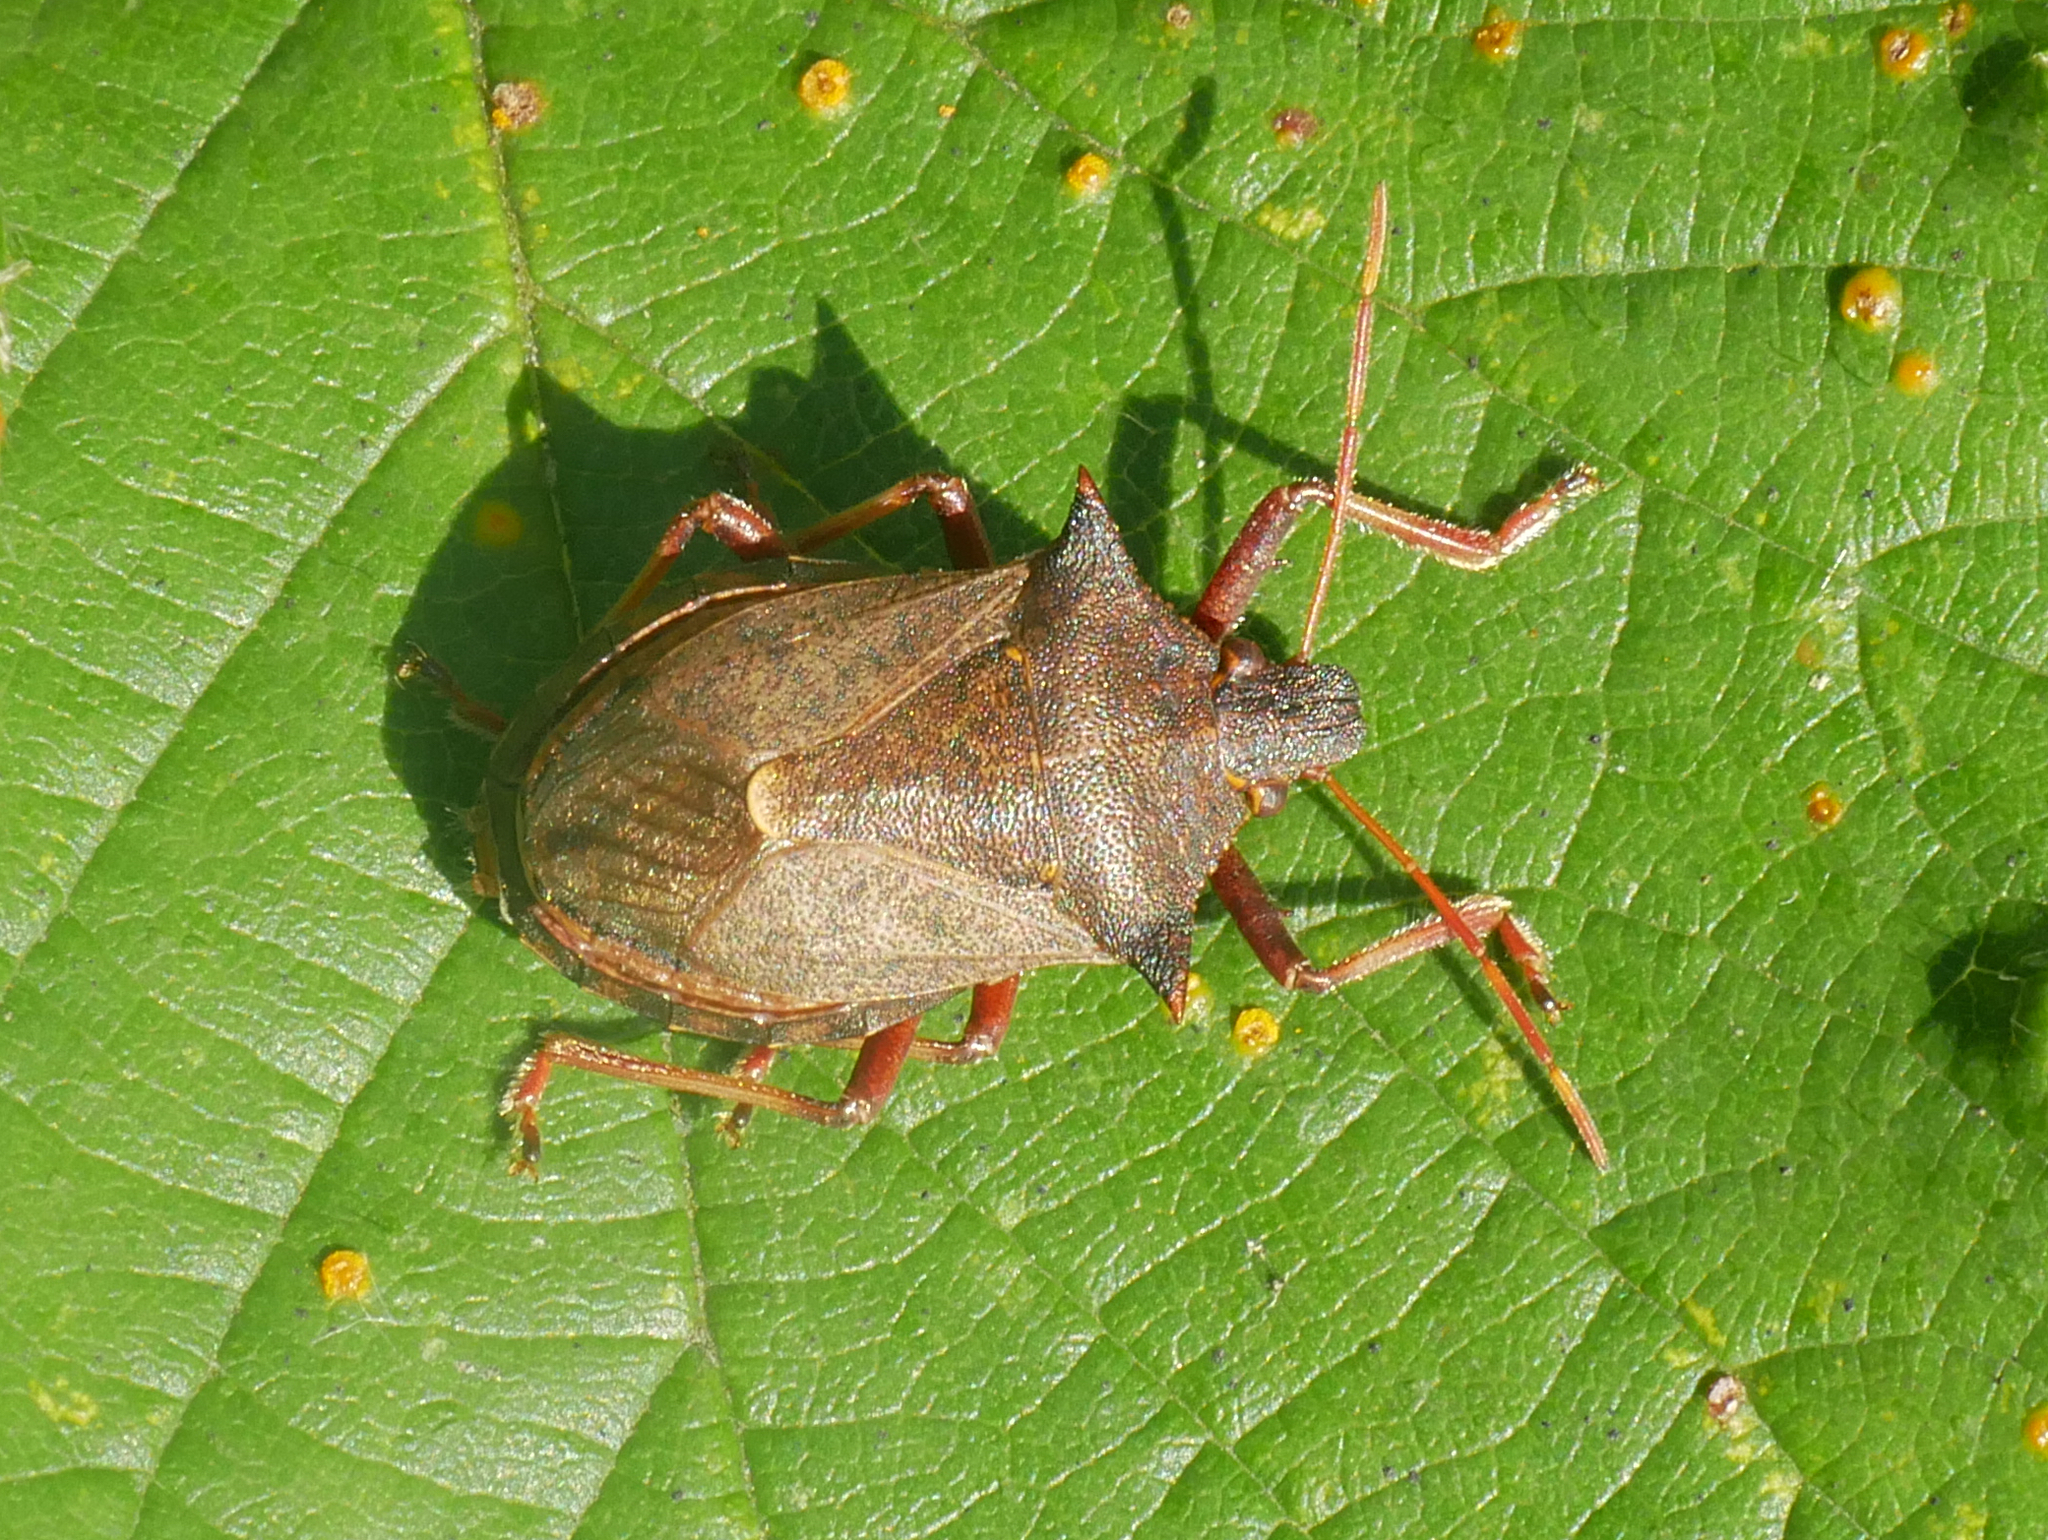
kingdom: Animalia
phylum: Arthropoda
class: Insecta
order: Hemiptera
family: Pentatomidae
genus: Picromerus
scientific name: Picromerus bidens
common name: Spiked shieldbug
